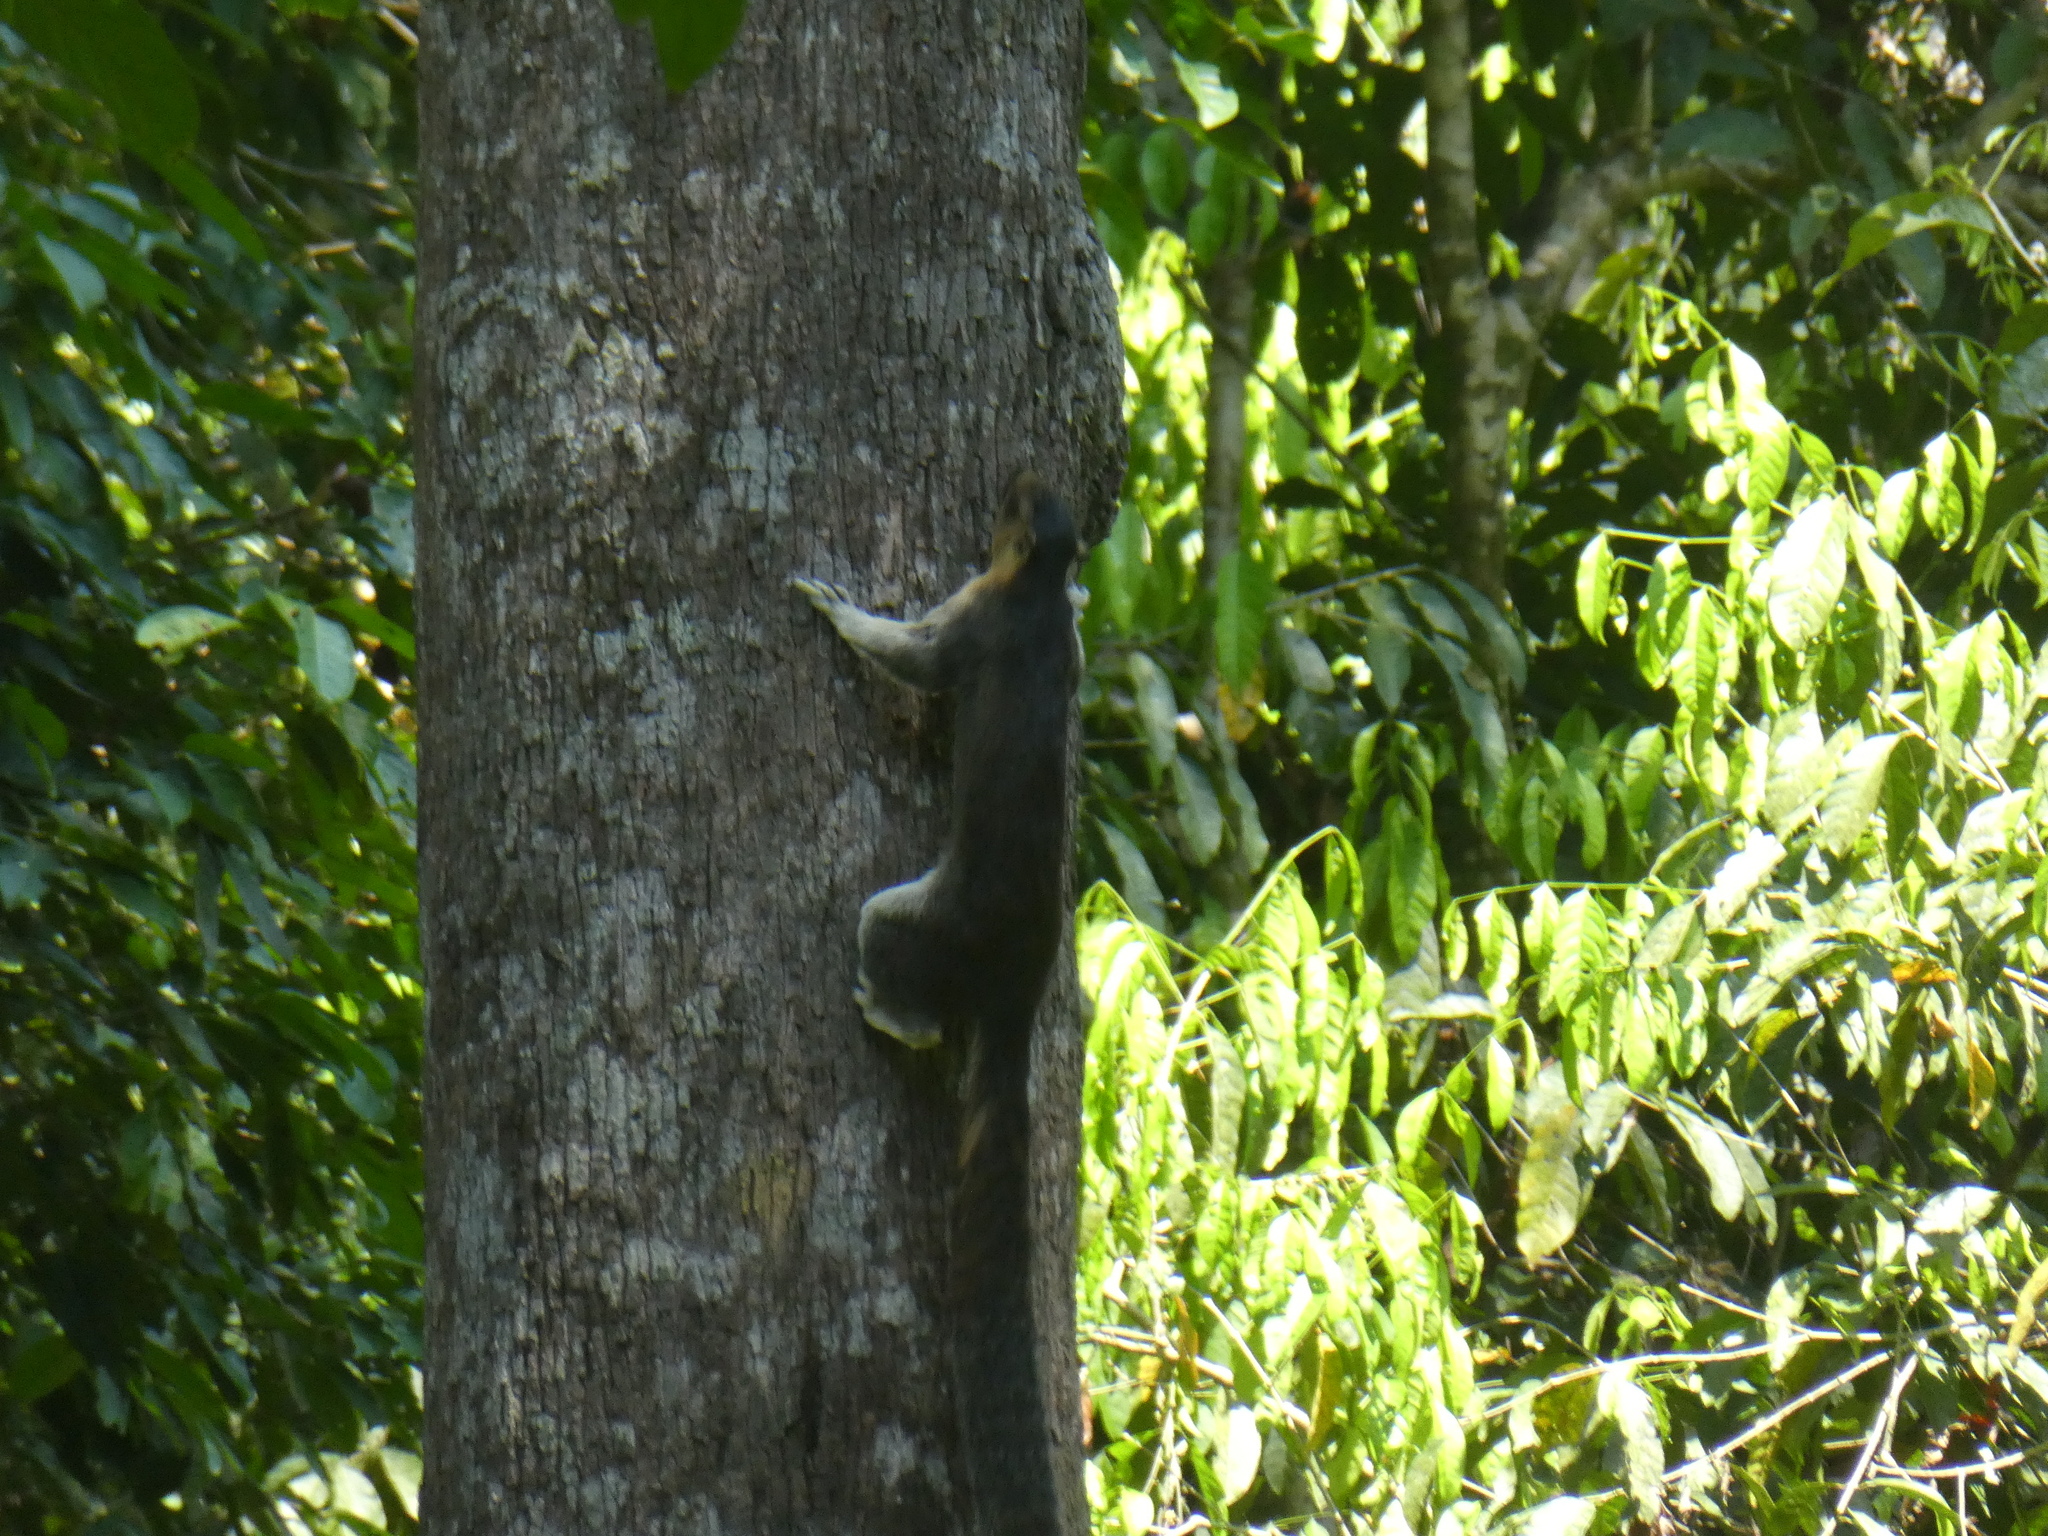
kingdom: Animalia
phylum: Chordata
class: Mammalia
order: Rodentia
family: Sciuridae
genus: Ratufa
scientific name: Ratufa affinis
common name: Pale giant squirrel
